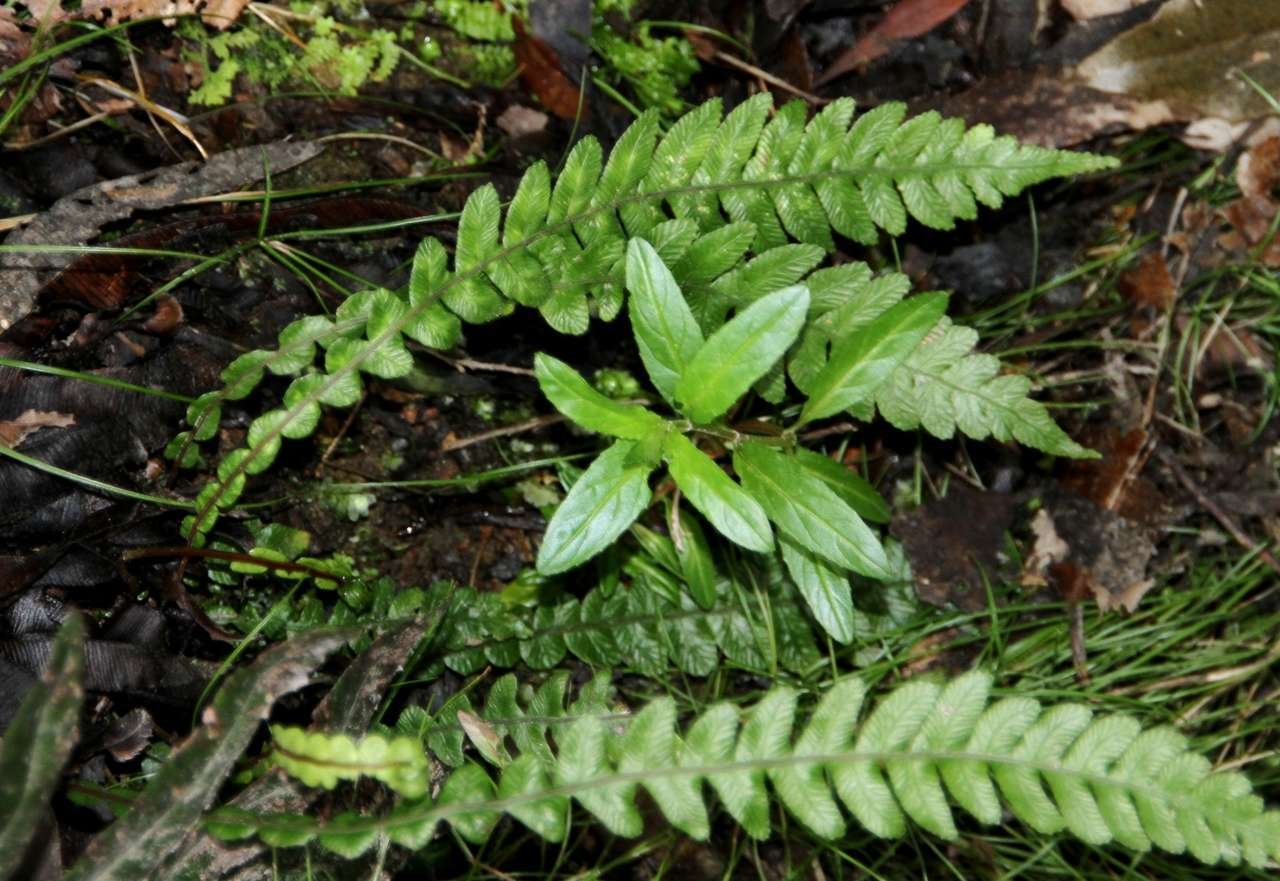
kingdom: Plantae
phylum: Tracheophyta
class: Polypodiopsida
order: Polypodiales
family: Blechnaceae
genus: Austroblechnum
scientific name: Austroblechnum lanceolatum
